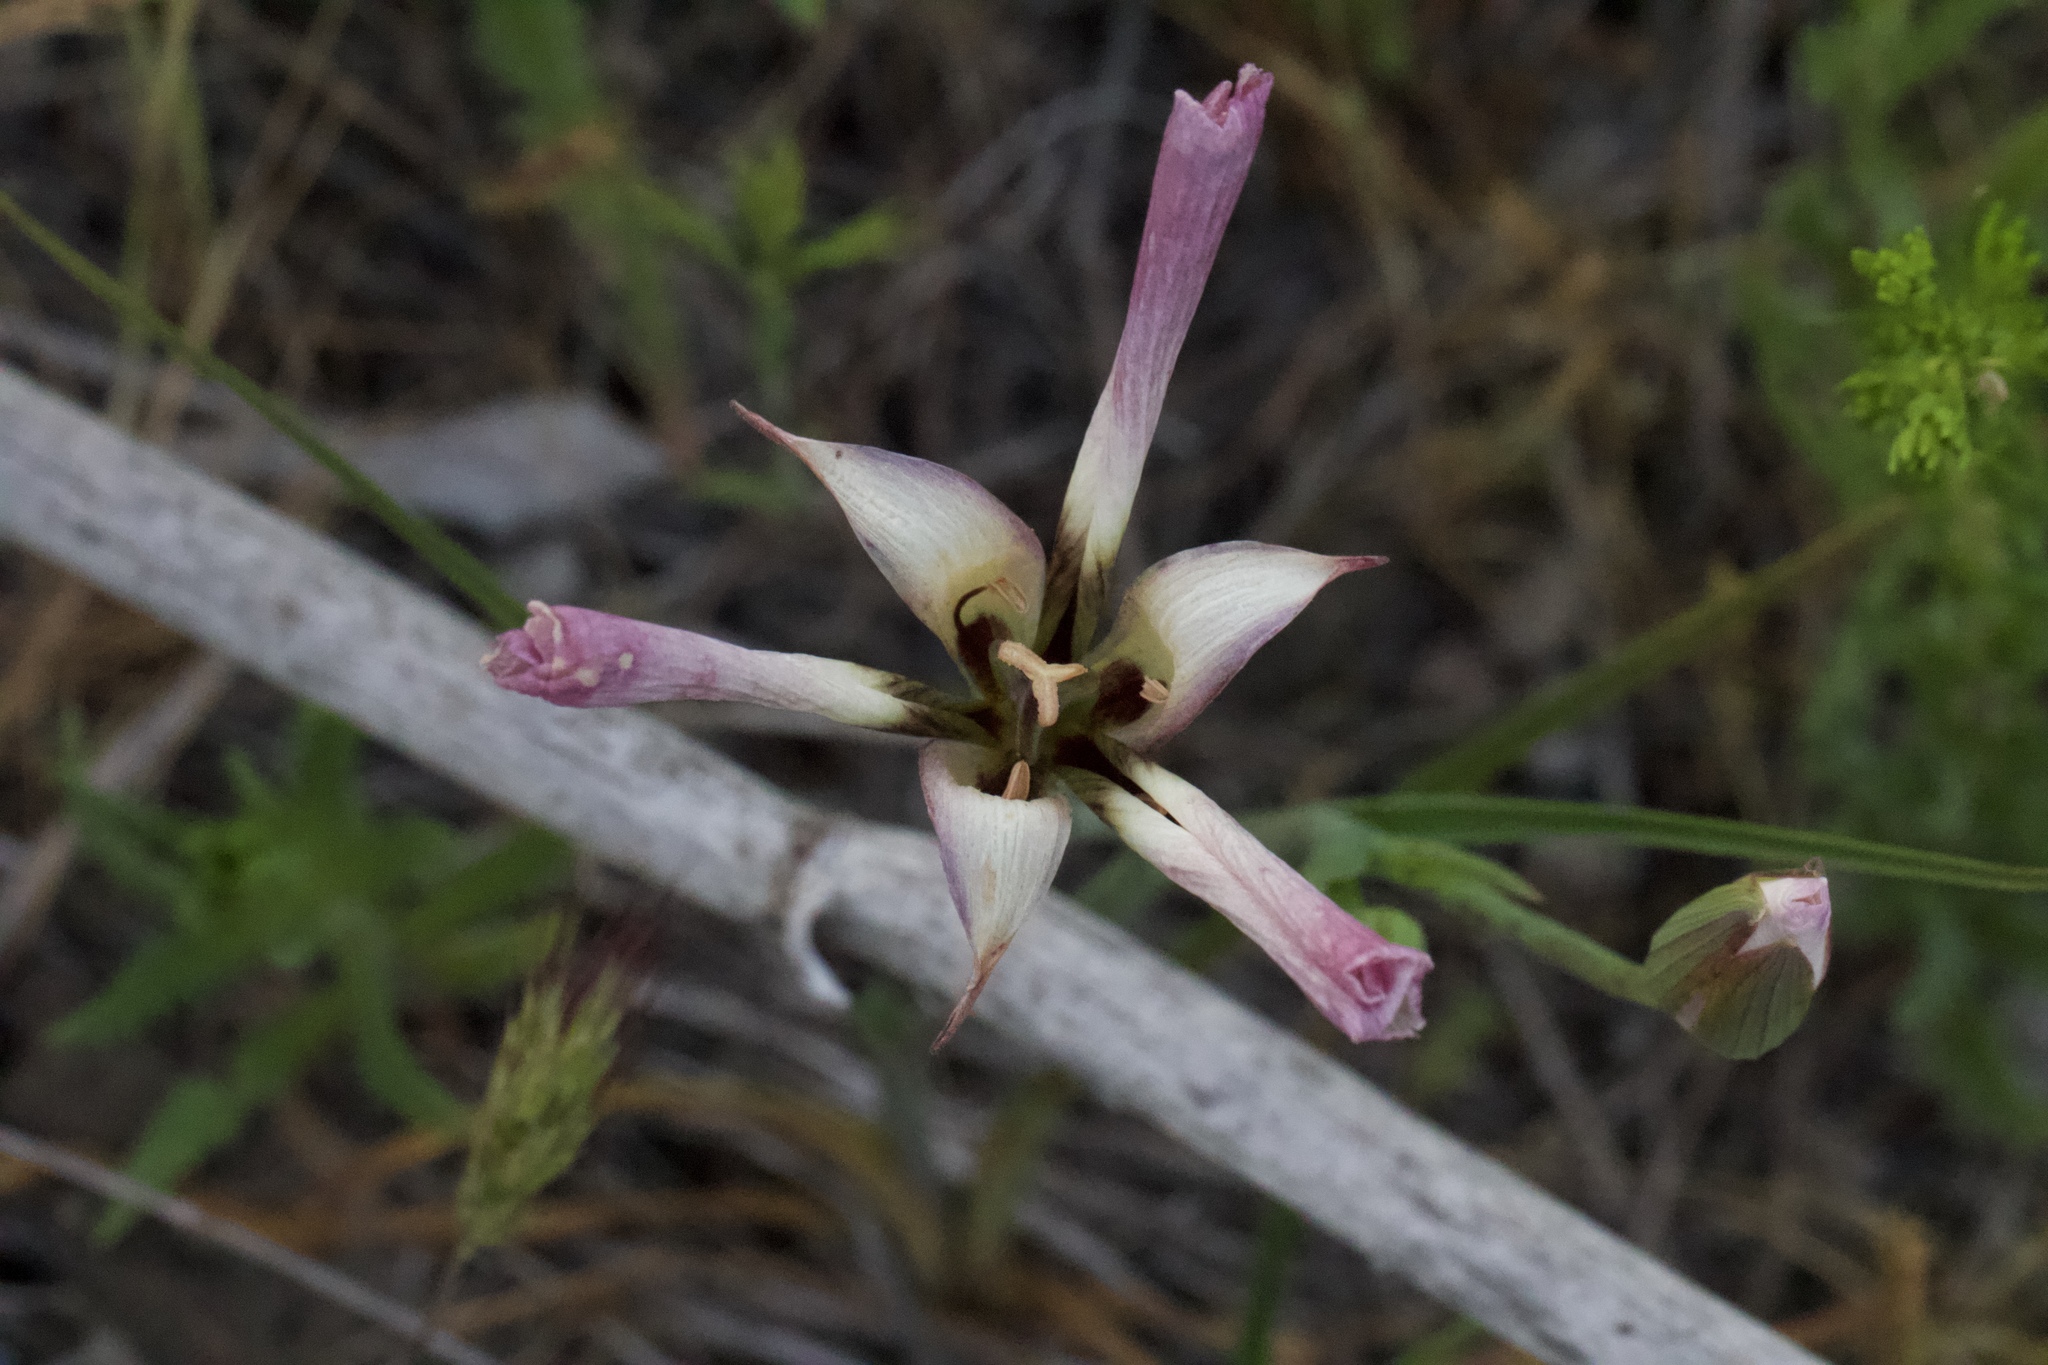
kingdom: Plantae
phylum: Tracheophyta
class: Liliopsida
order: Liliales
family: Liliaceae
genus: Calochortus
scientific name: Calochortus catalinae
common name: Catalina mariposa-lily
